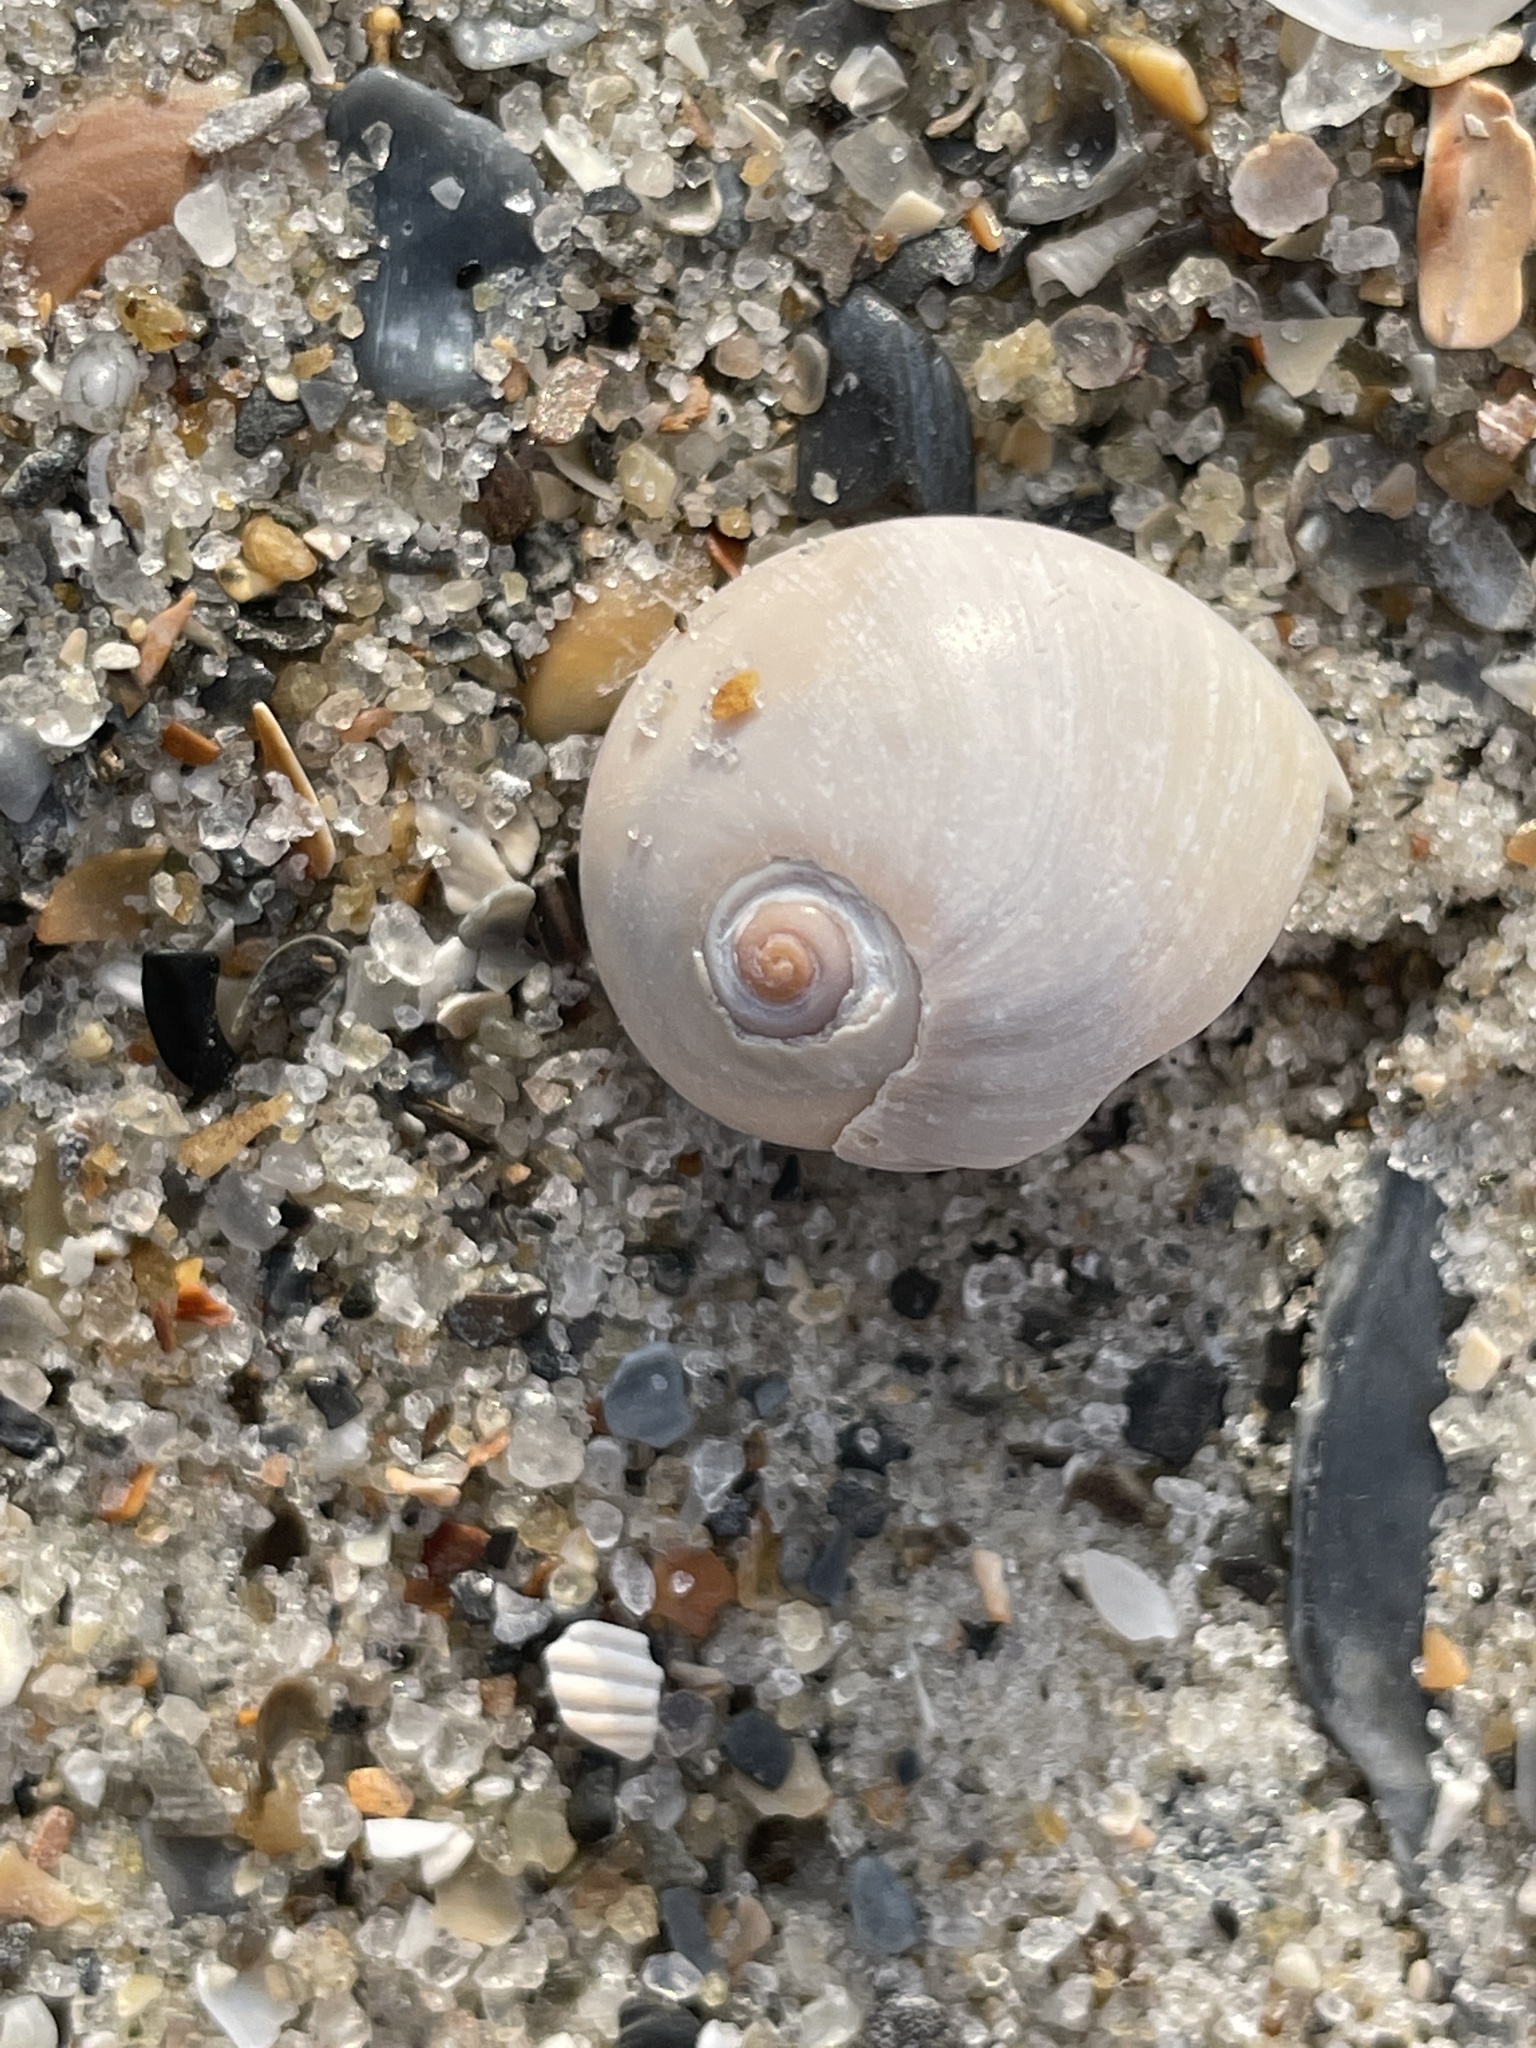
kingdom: Animalia
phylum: Mollusca
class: Gastropoda
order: Littorinimorpha
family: Naticidae
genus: Neverita
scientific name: Neverita duplicata
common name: Lobed moonsnail
